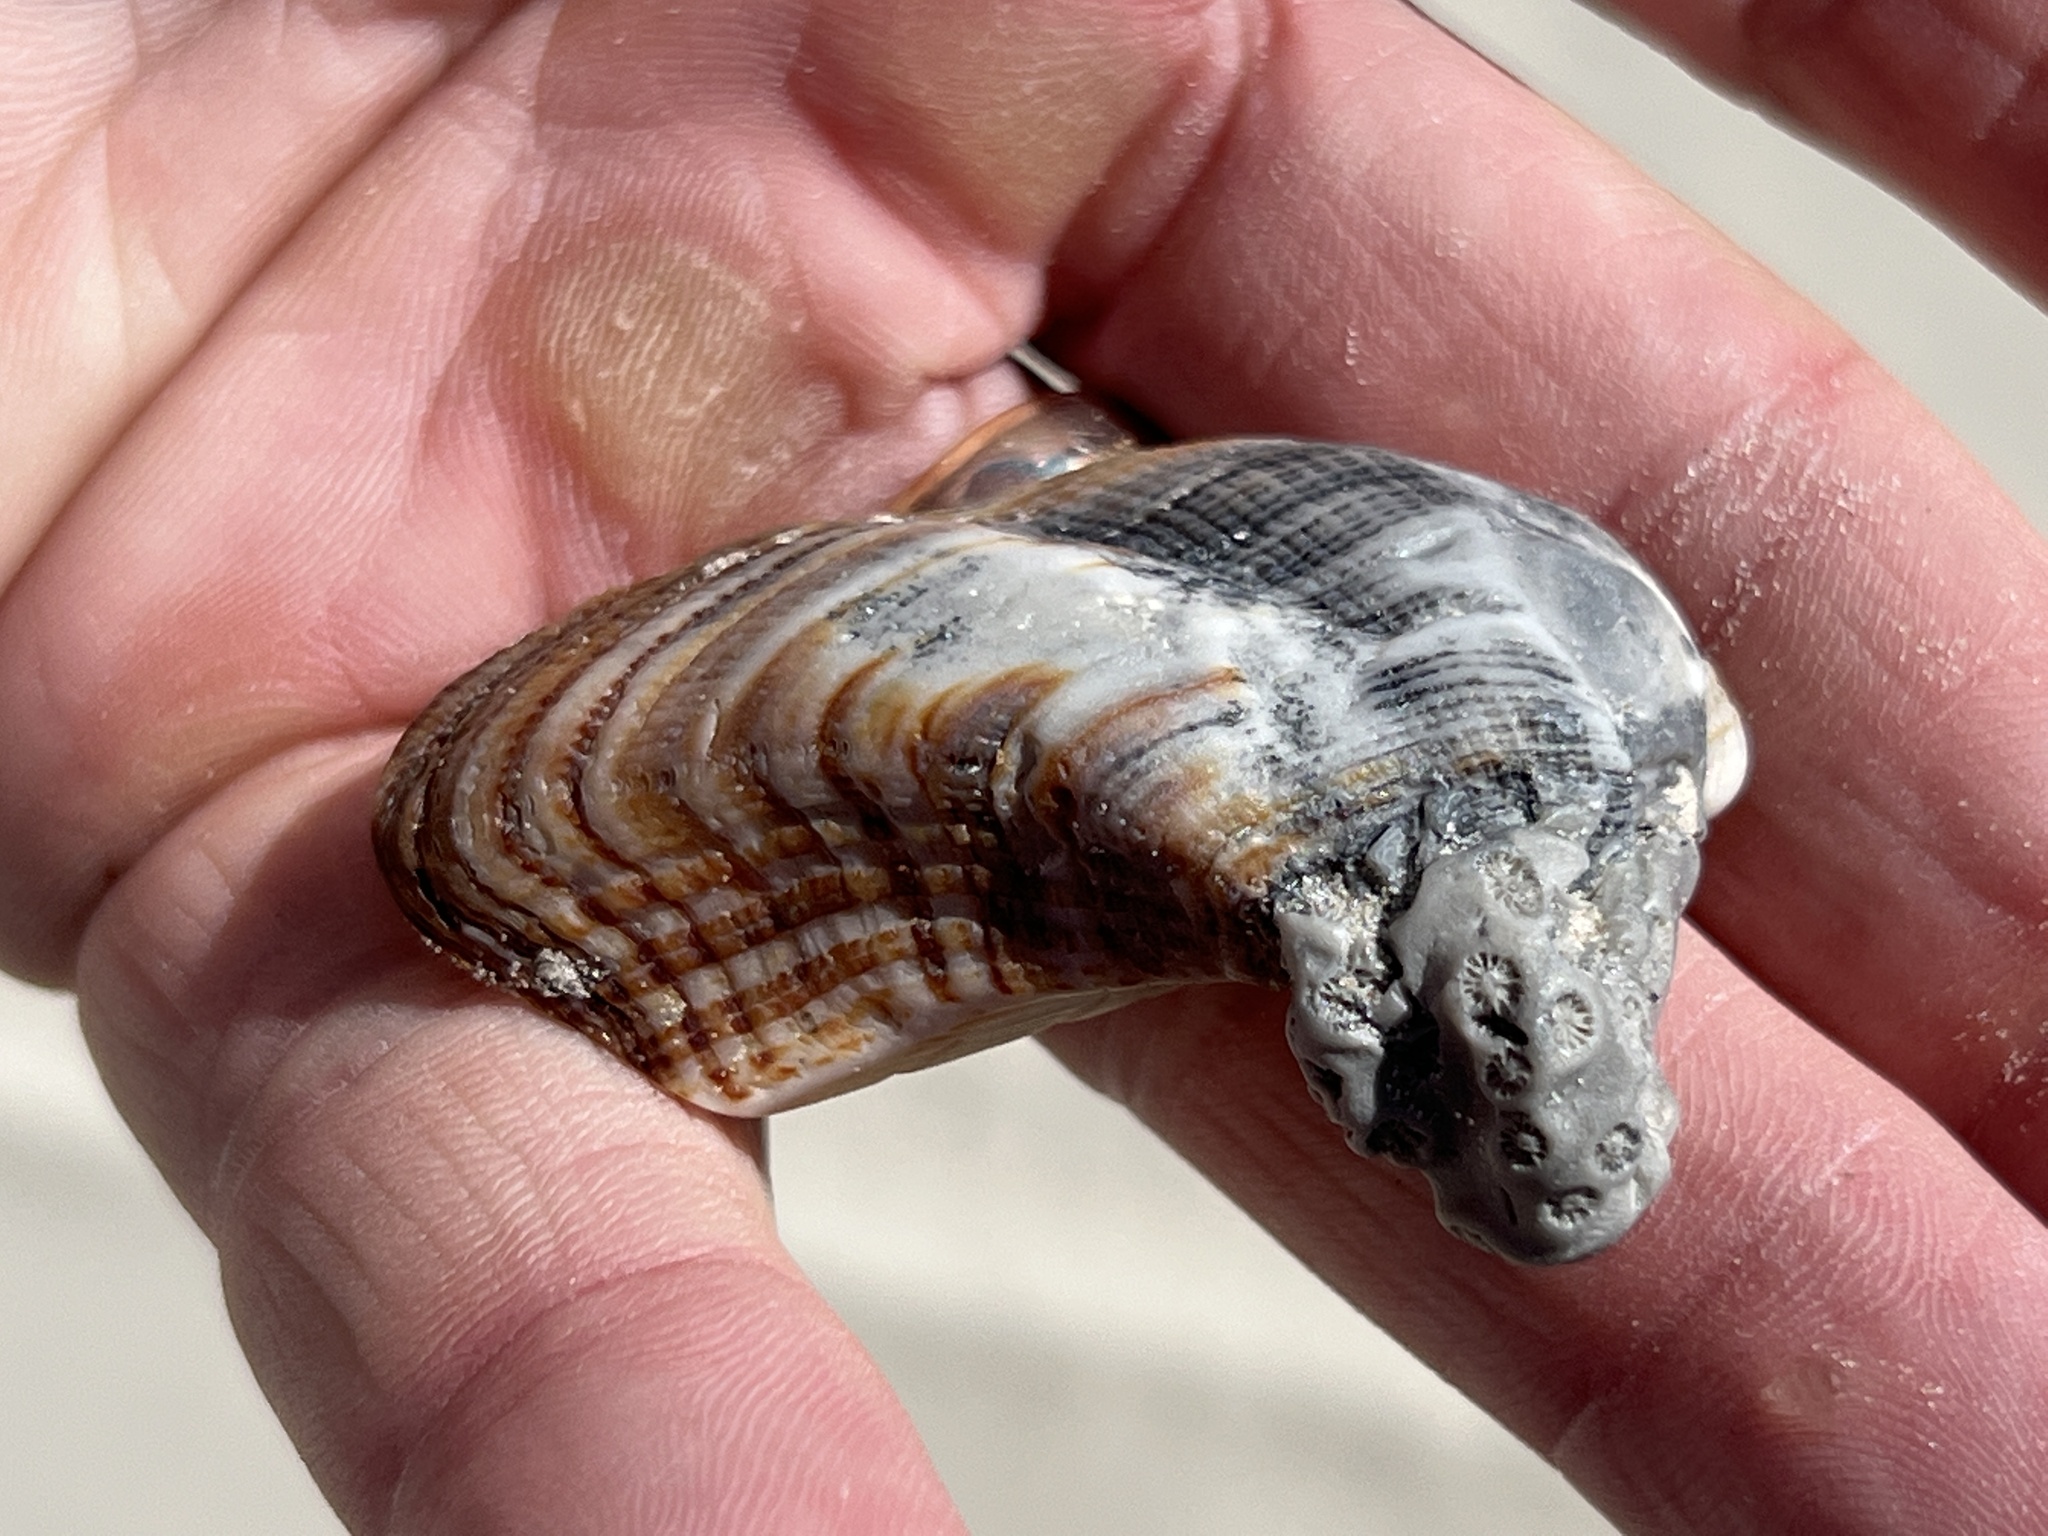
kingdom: Animalia
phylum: Mollusca
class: Bivalvia
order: Arcida
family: Arcidae
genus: Lamarcka
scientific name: Lamarcka imbricata
